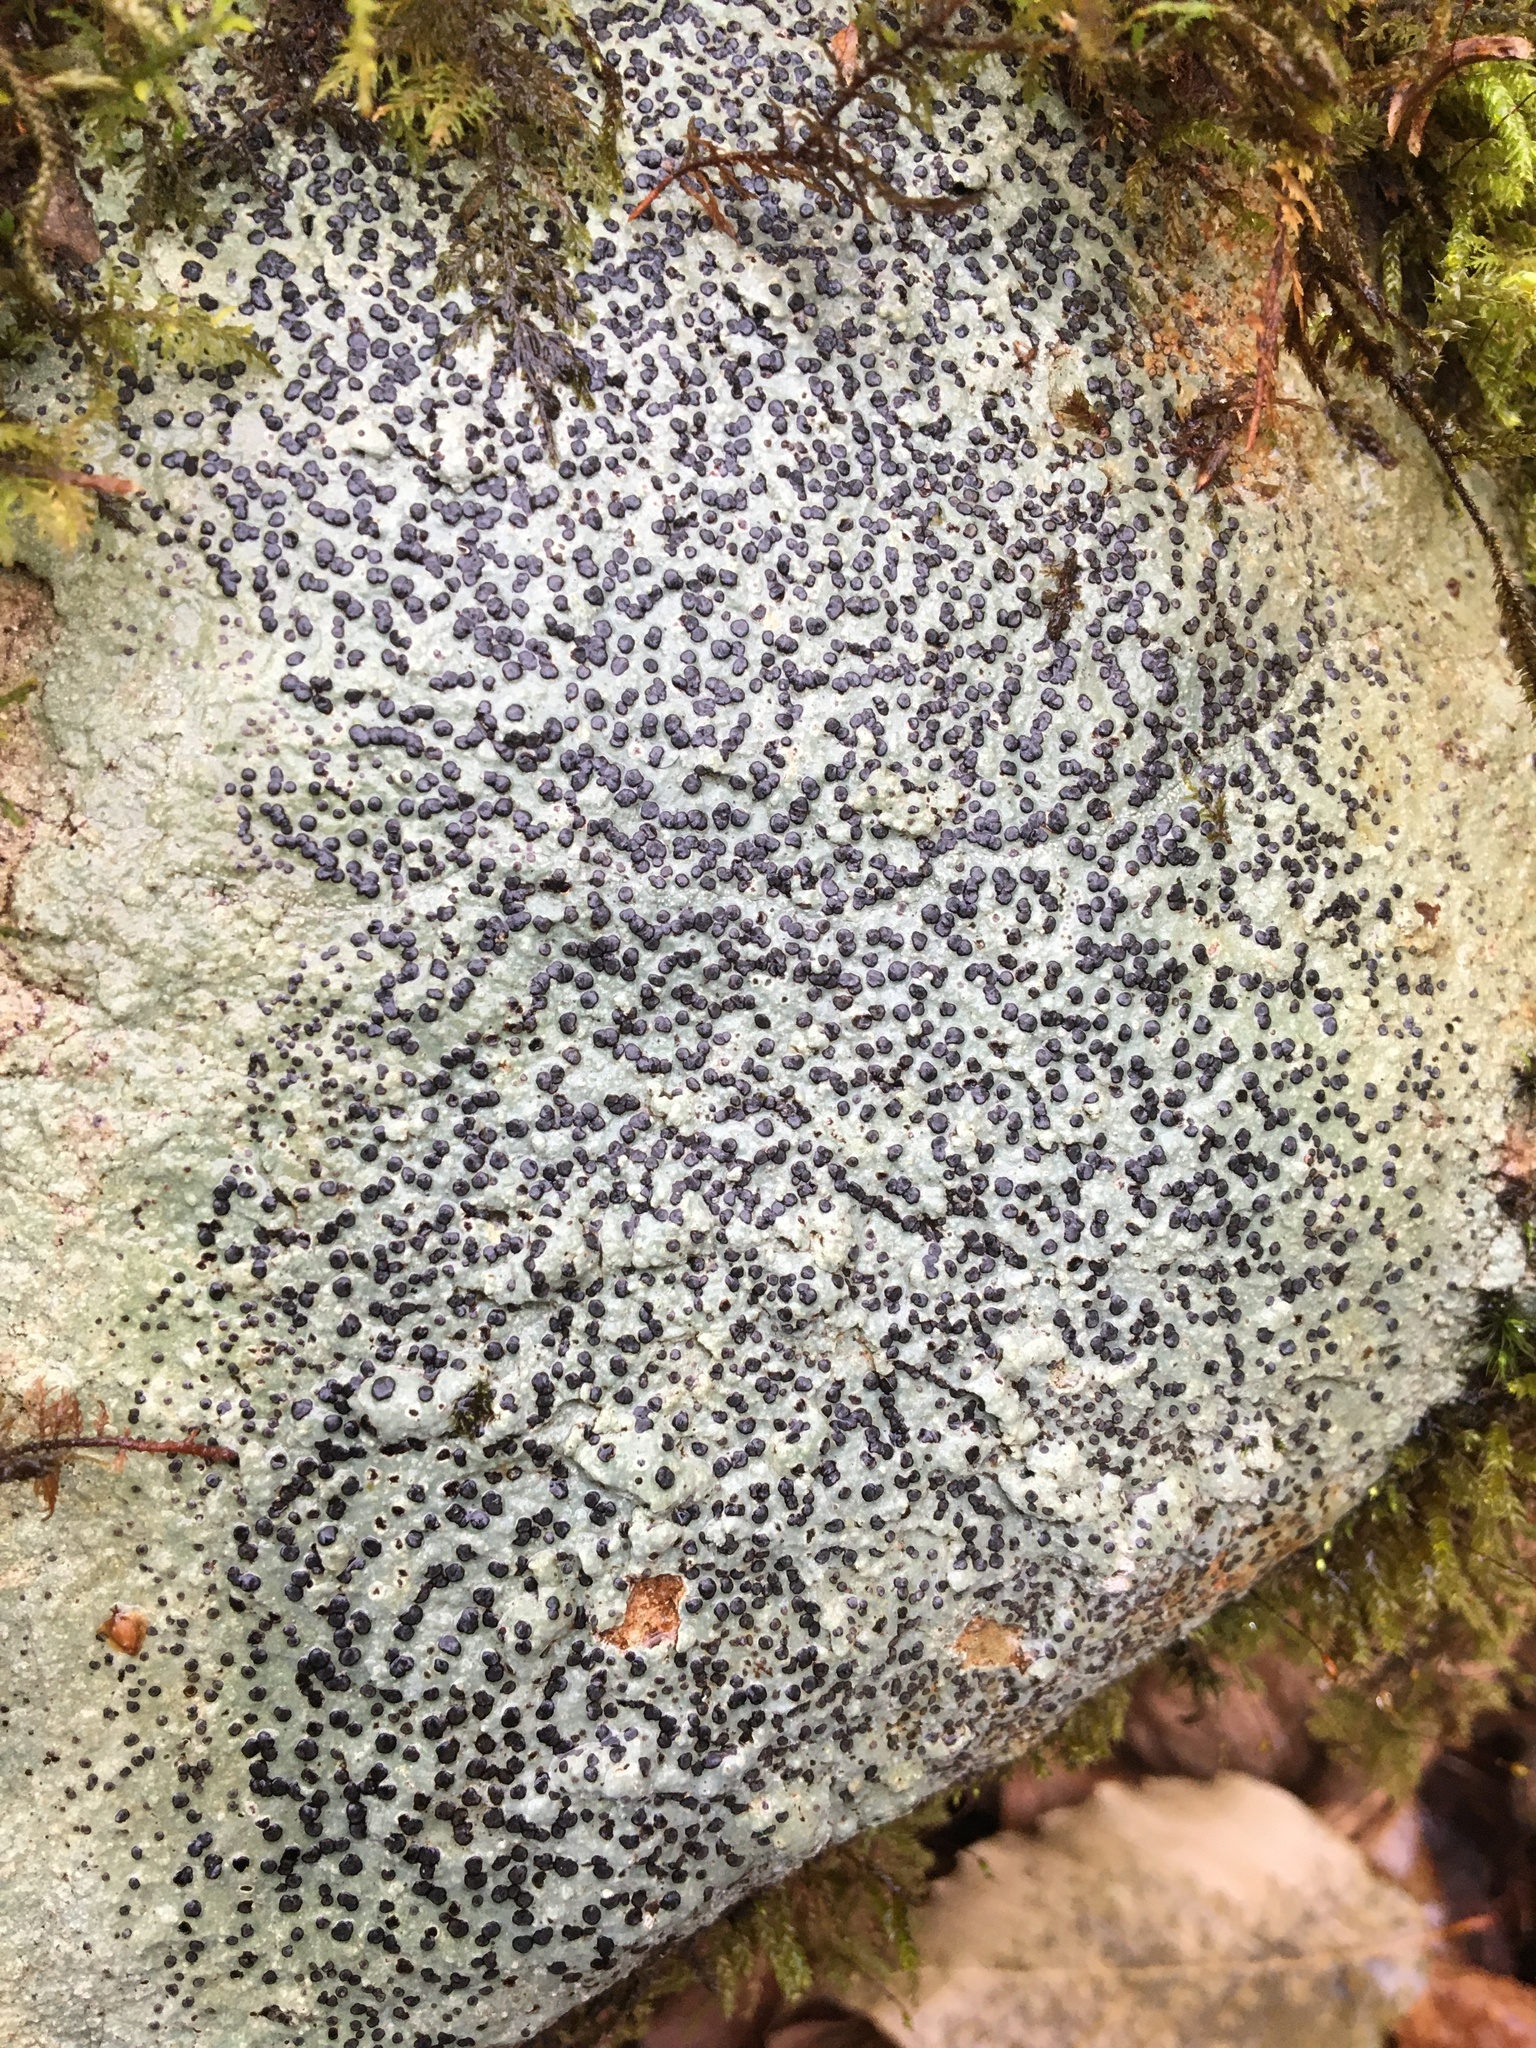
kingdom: Fungi
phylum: Ascomycota
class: Lecanoromycetes
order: Lecideales
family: Lecideaceae
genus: Porpidia
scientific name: Porpidia albocaerulescens
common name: Smokey-eyed boulder lichen
